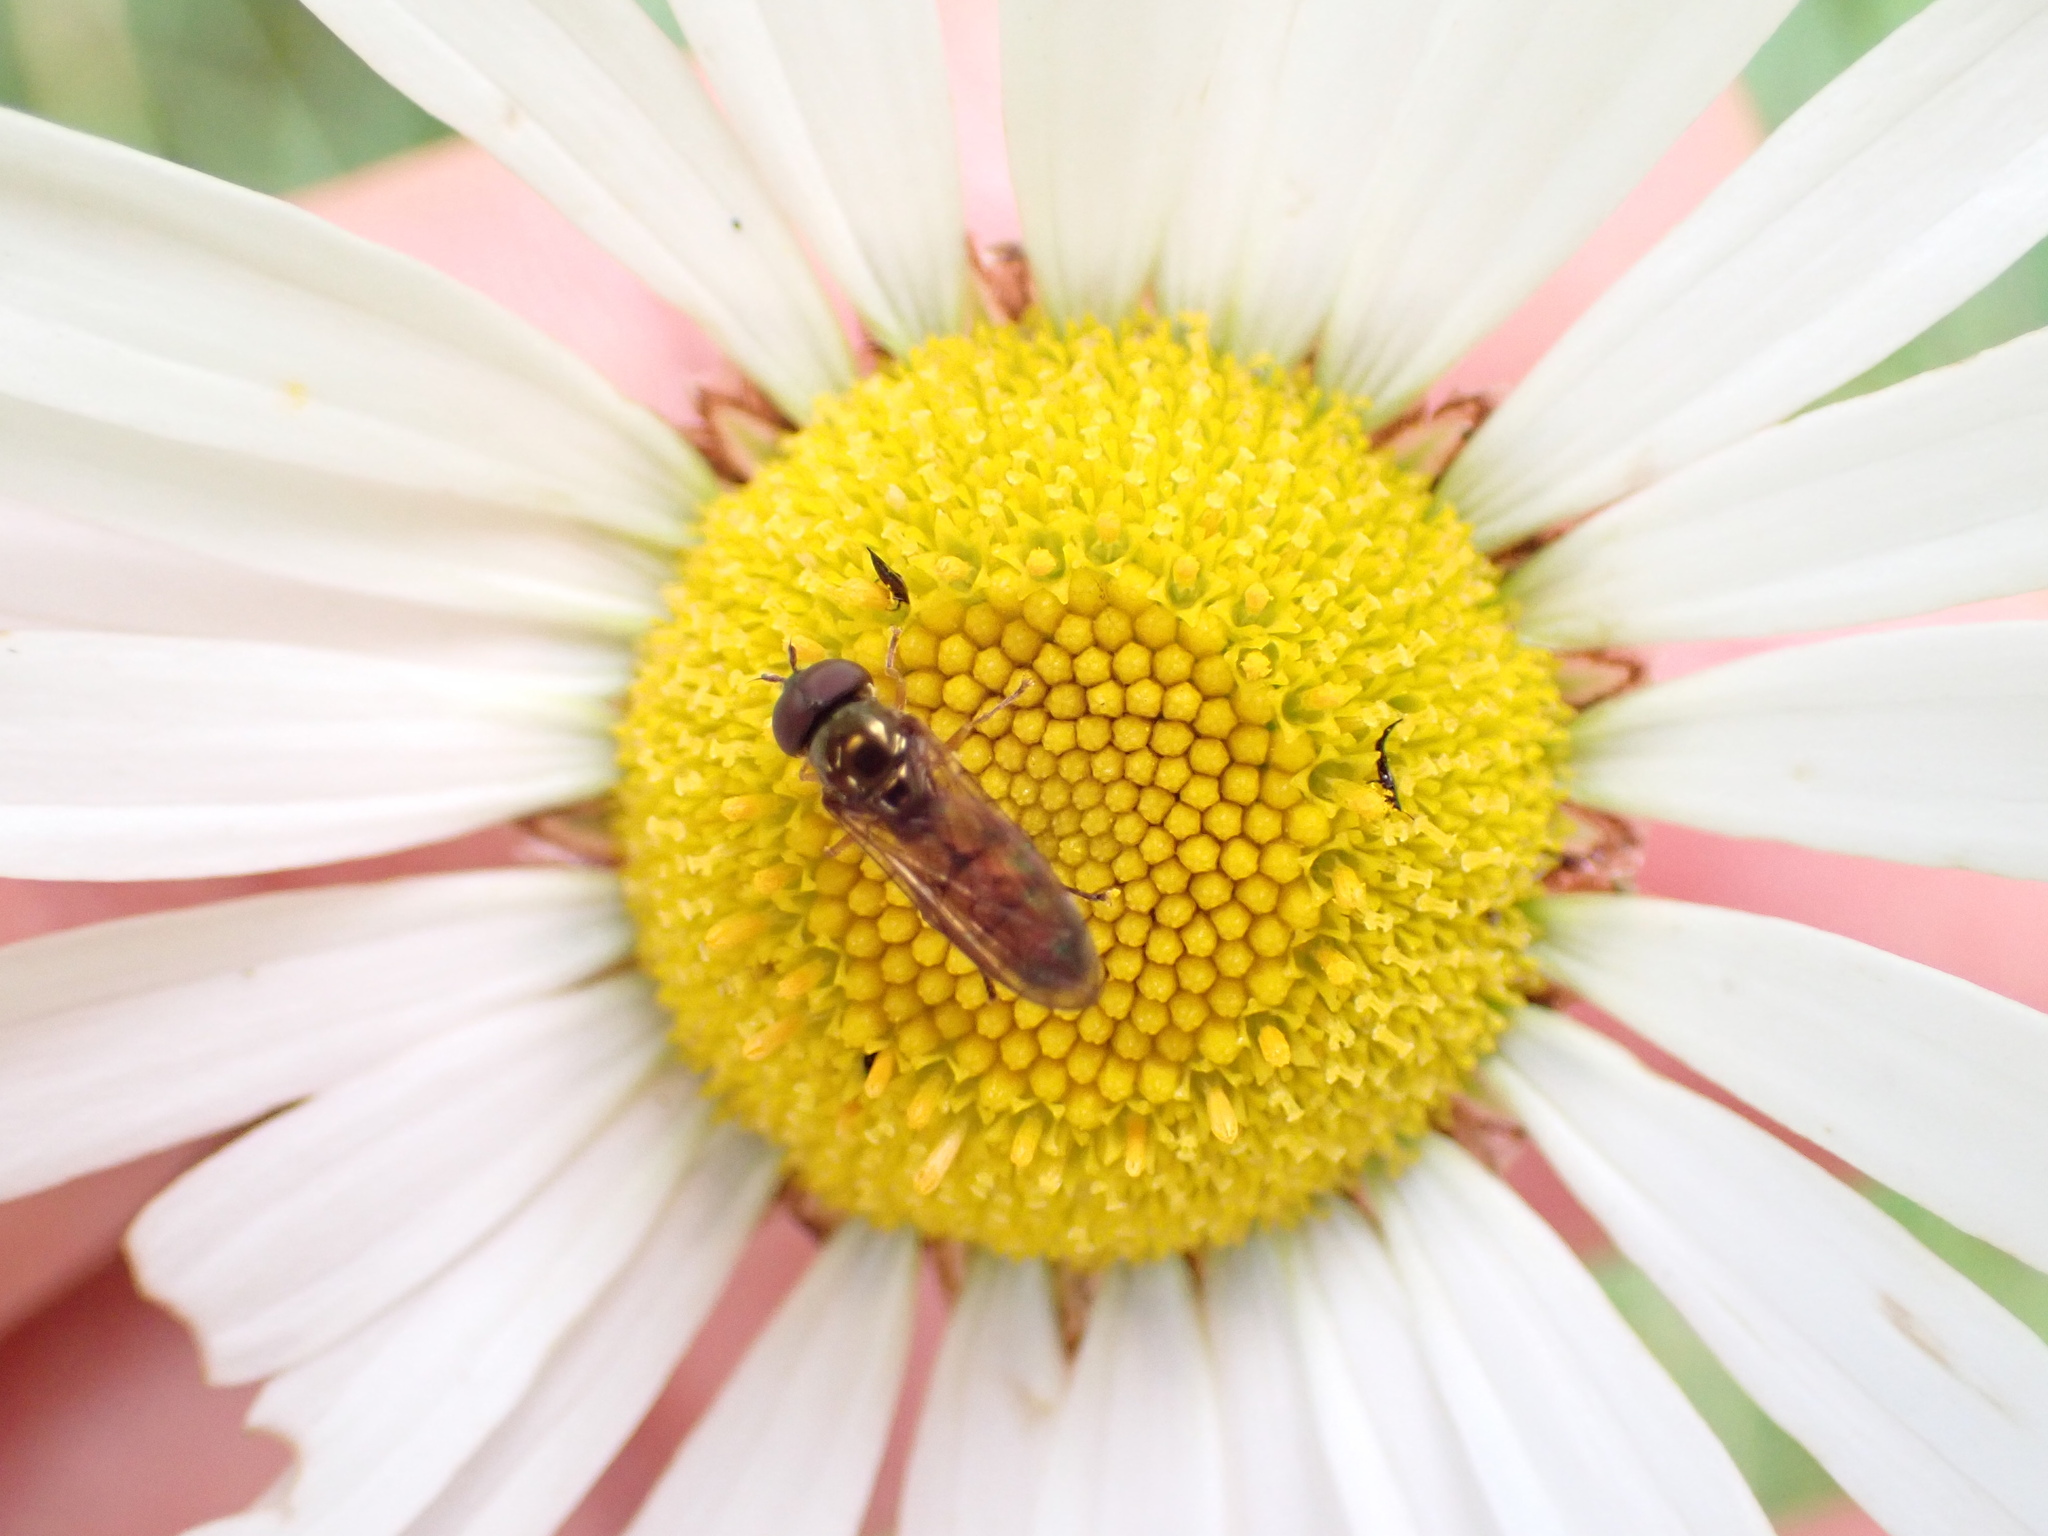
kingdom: Animalia
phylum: Arthropoda
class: Insecta
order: Diptera
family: Syrphidae
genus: Melanostoma
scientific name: Melanostoma fasciatum
